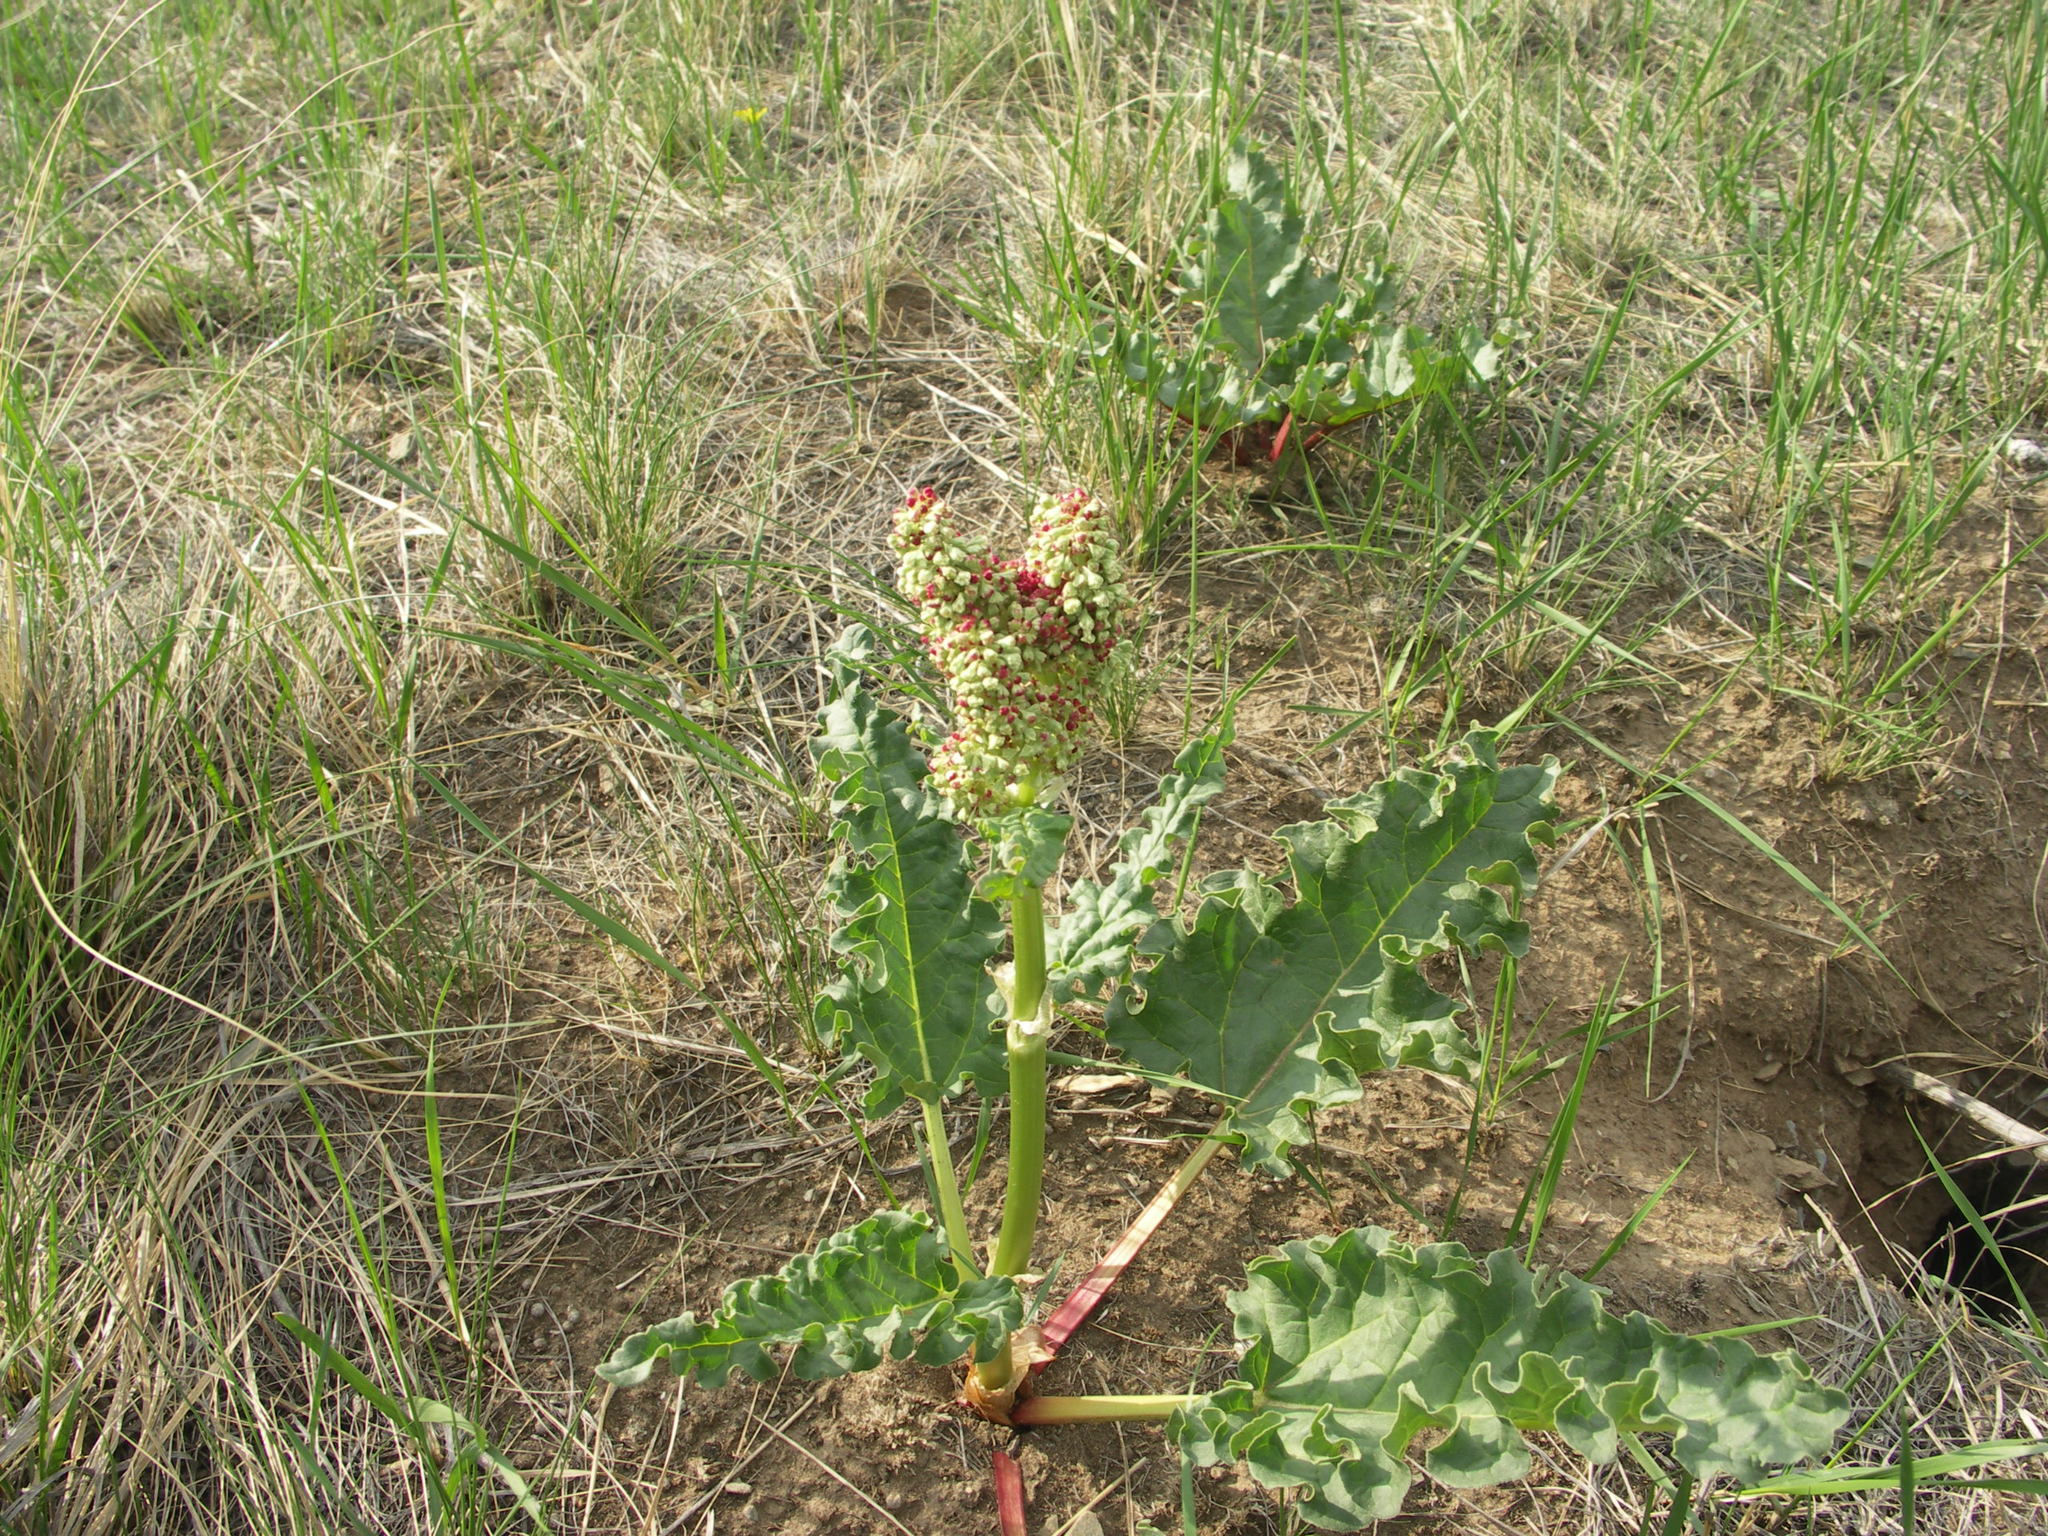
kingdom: Plantae
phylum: Tracheophyta
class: Magnoliopsida
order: Caryophyllales
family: Polygonaceae
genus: Rheum
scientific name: Rheum rhabarbarum
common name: Garden rhubarb
